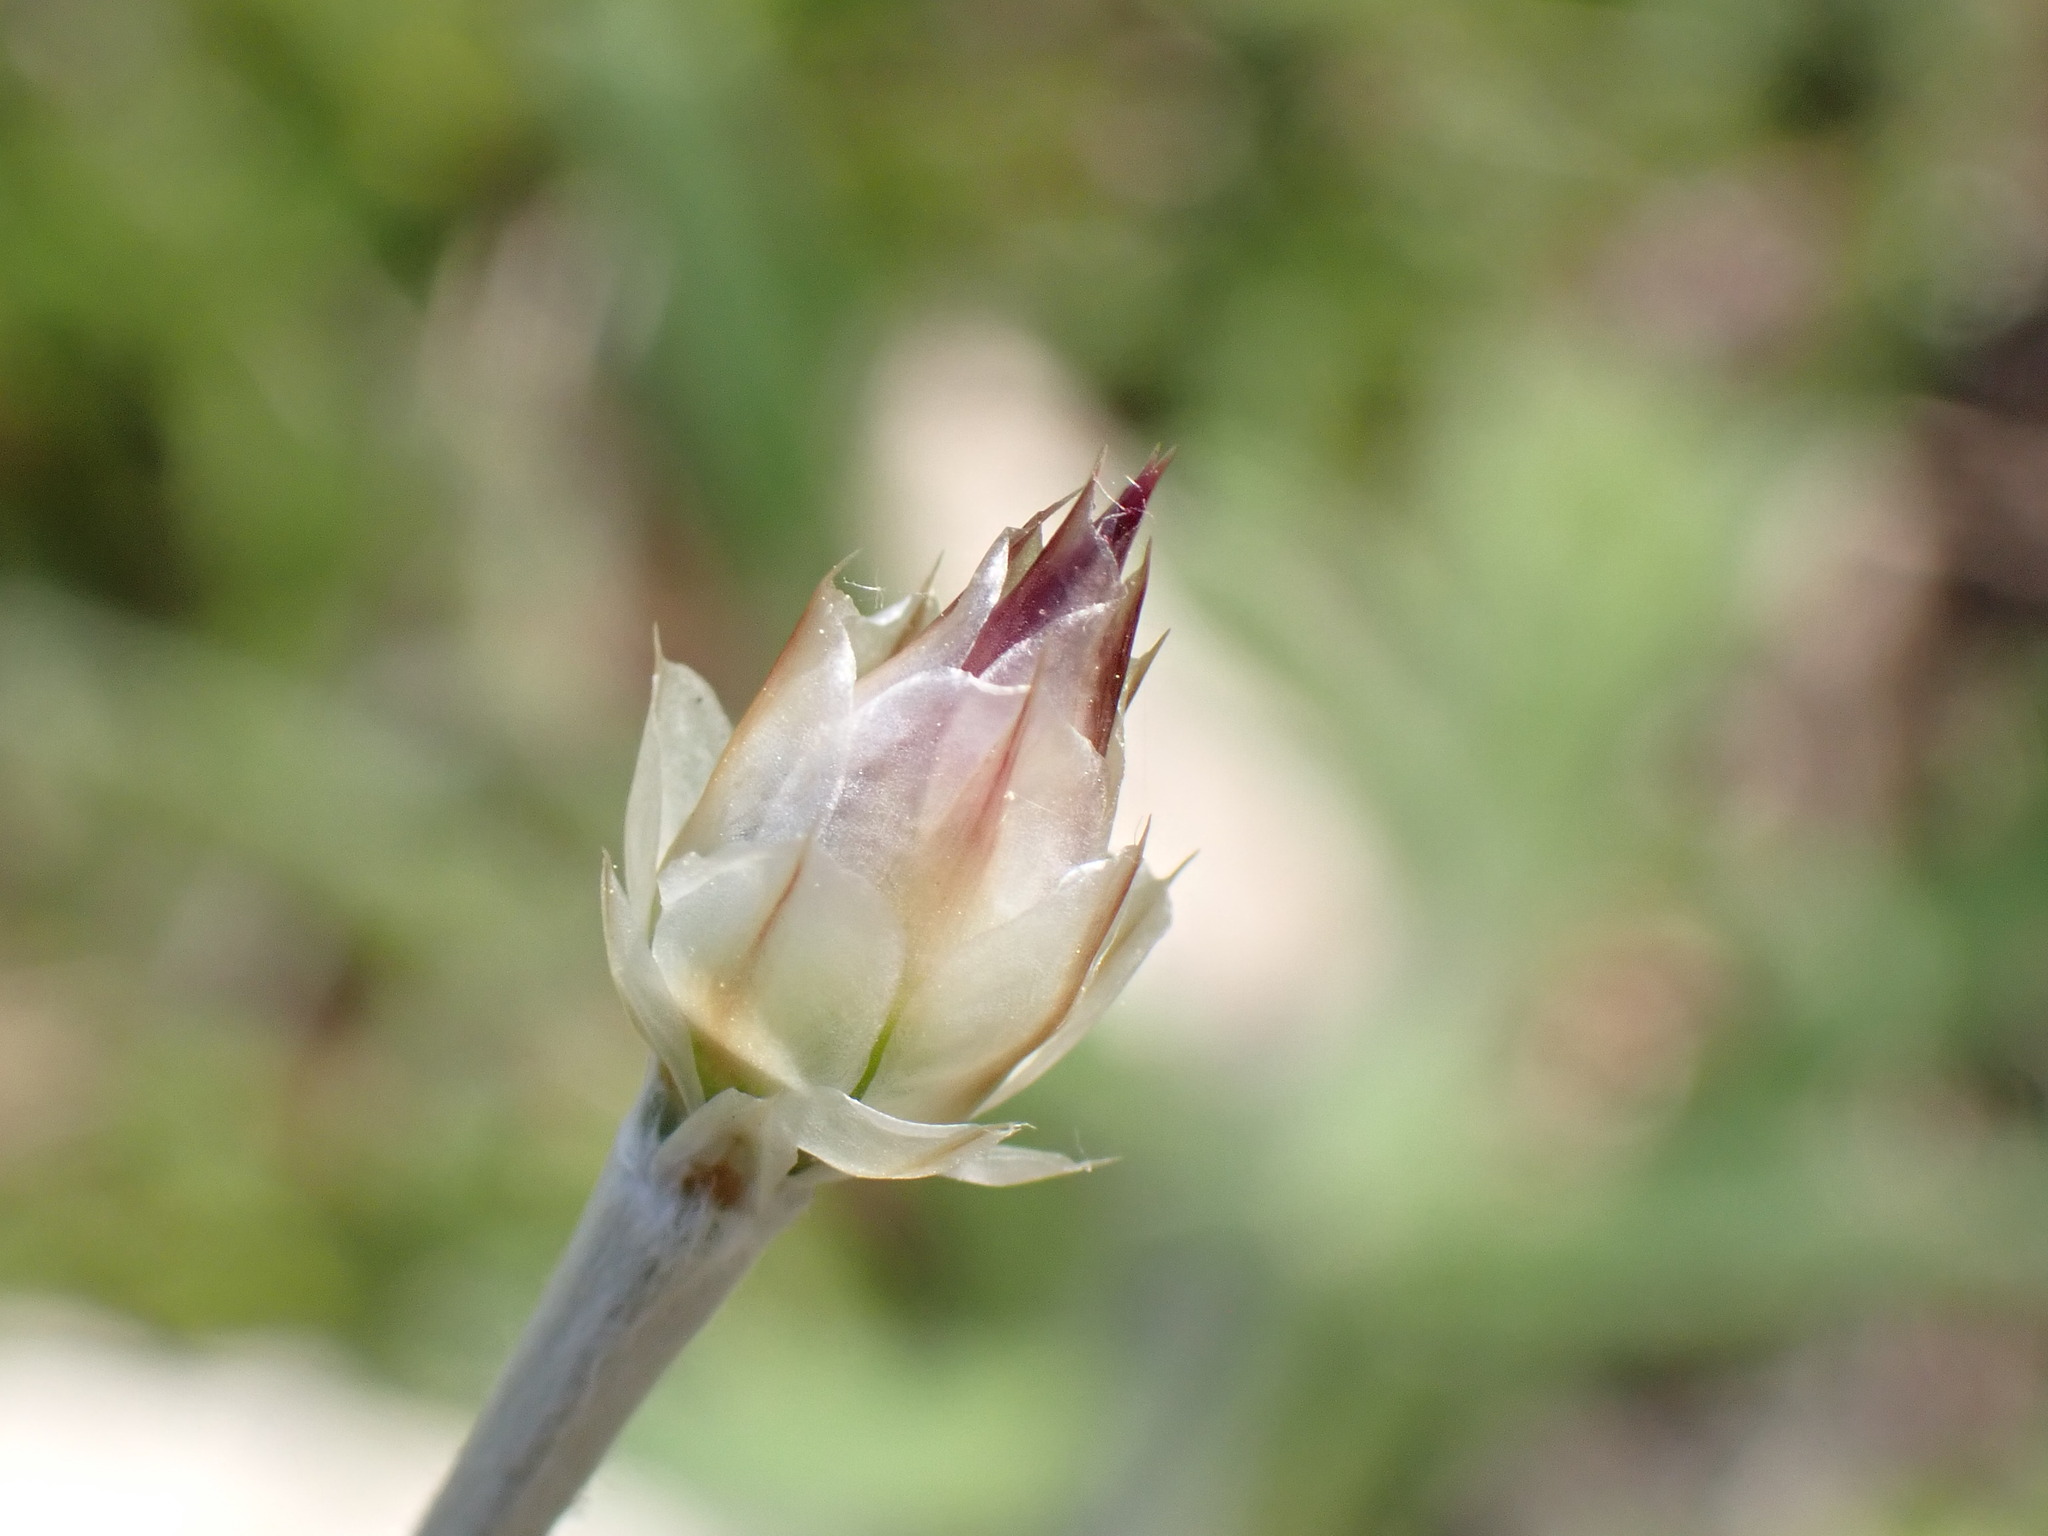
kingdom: Plantae
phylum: Tracheophyta
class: Magnoliopsida
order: Asterales
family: Asteraceae
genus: Xeranthemum
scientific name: Xeranthemum inapertum
